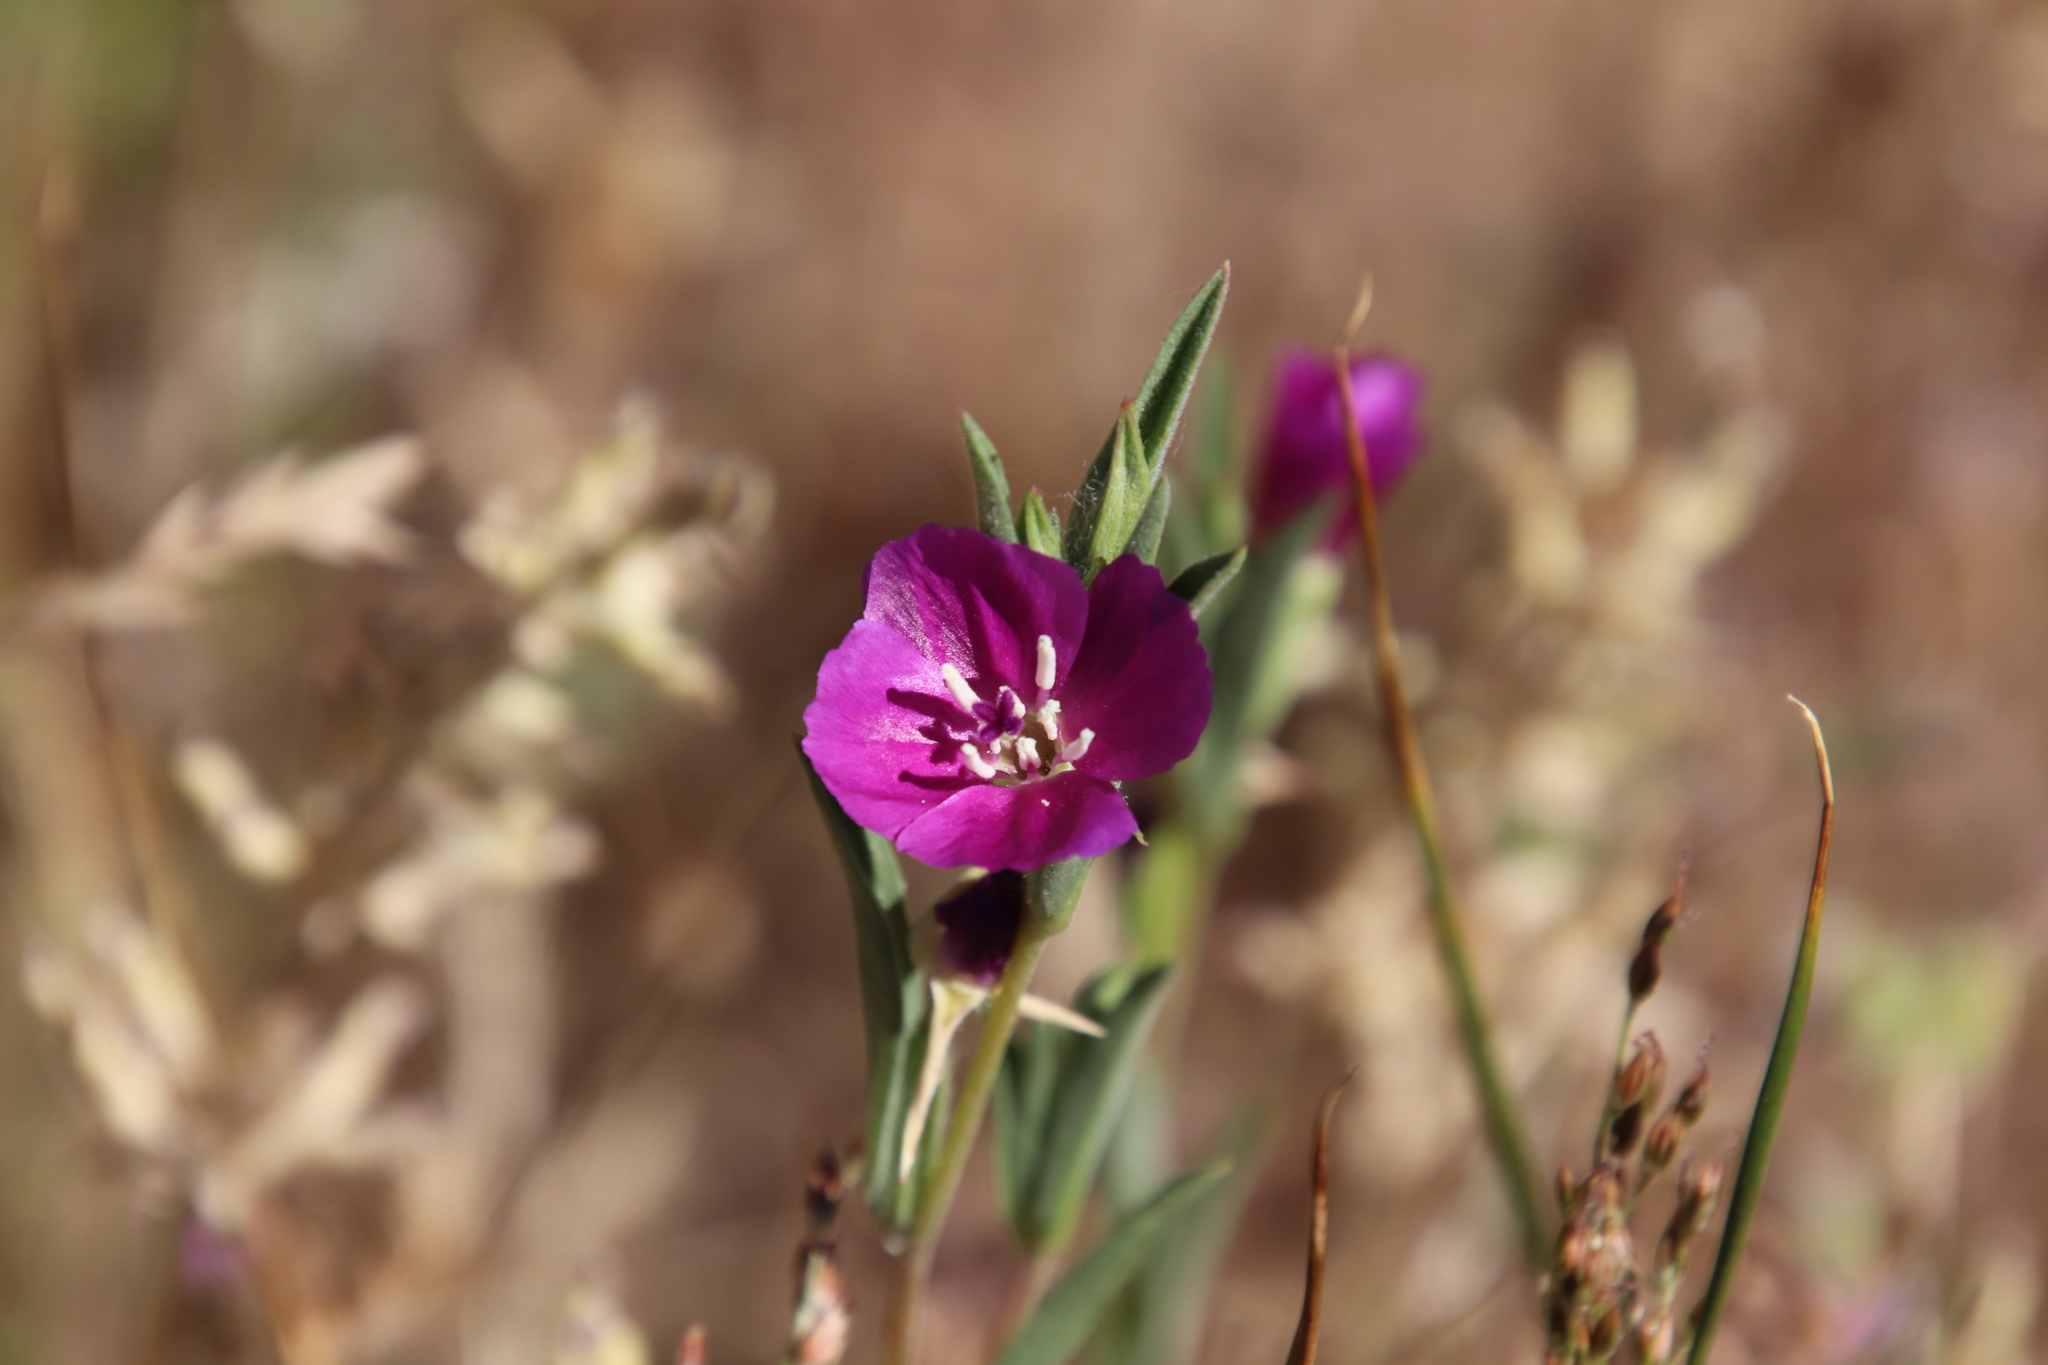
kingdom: Plantae
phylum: Tracheophyta
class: Magnoliopsida
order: Myrtales
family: Onagraceae
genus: Clarkia
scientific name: Clarkia purpurea
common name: Purple clarkia
